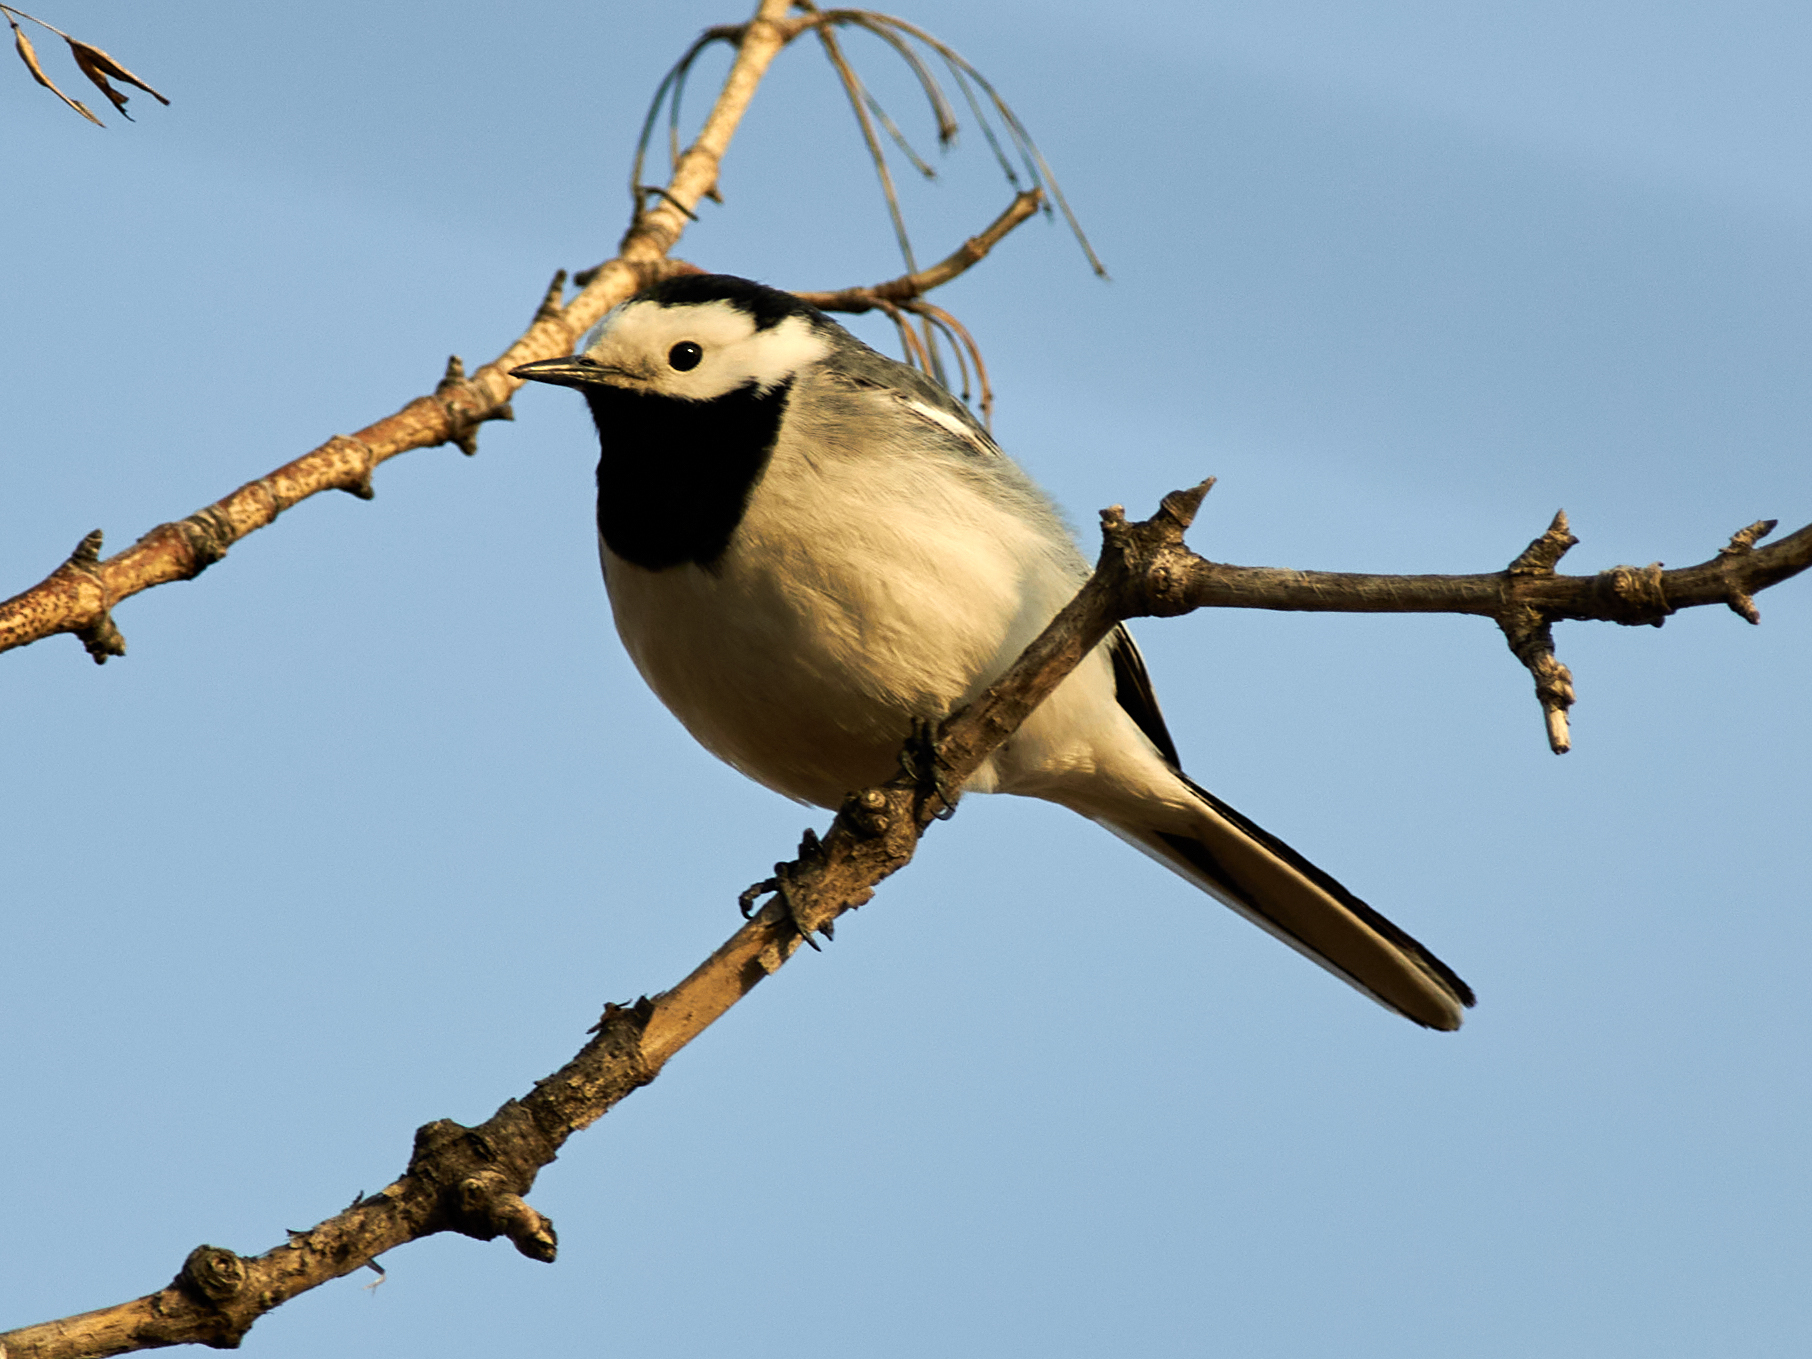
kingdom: Animalia
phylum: Chordata
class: Aves
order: Passeriformes
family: Motacillidae
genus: Motacilla
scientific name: Motacilla alba
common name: White wagtail
